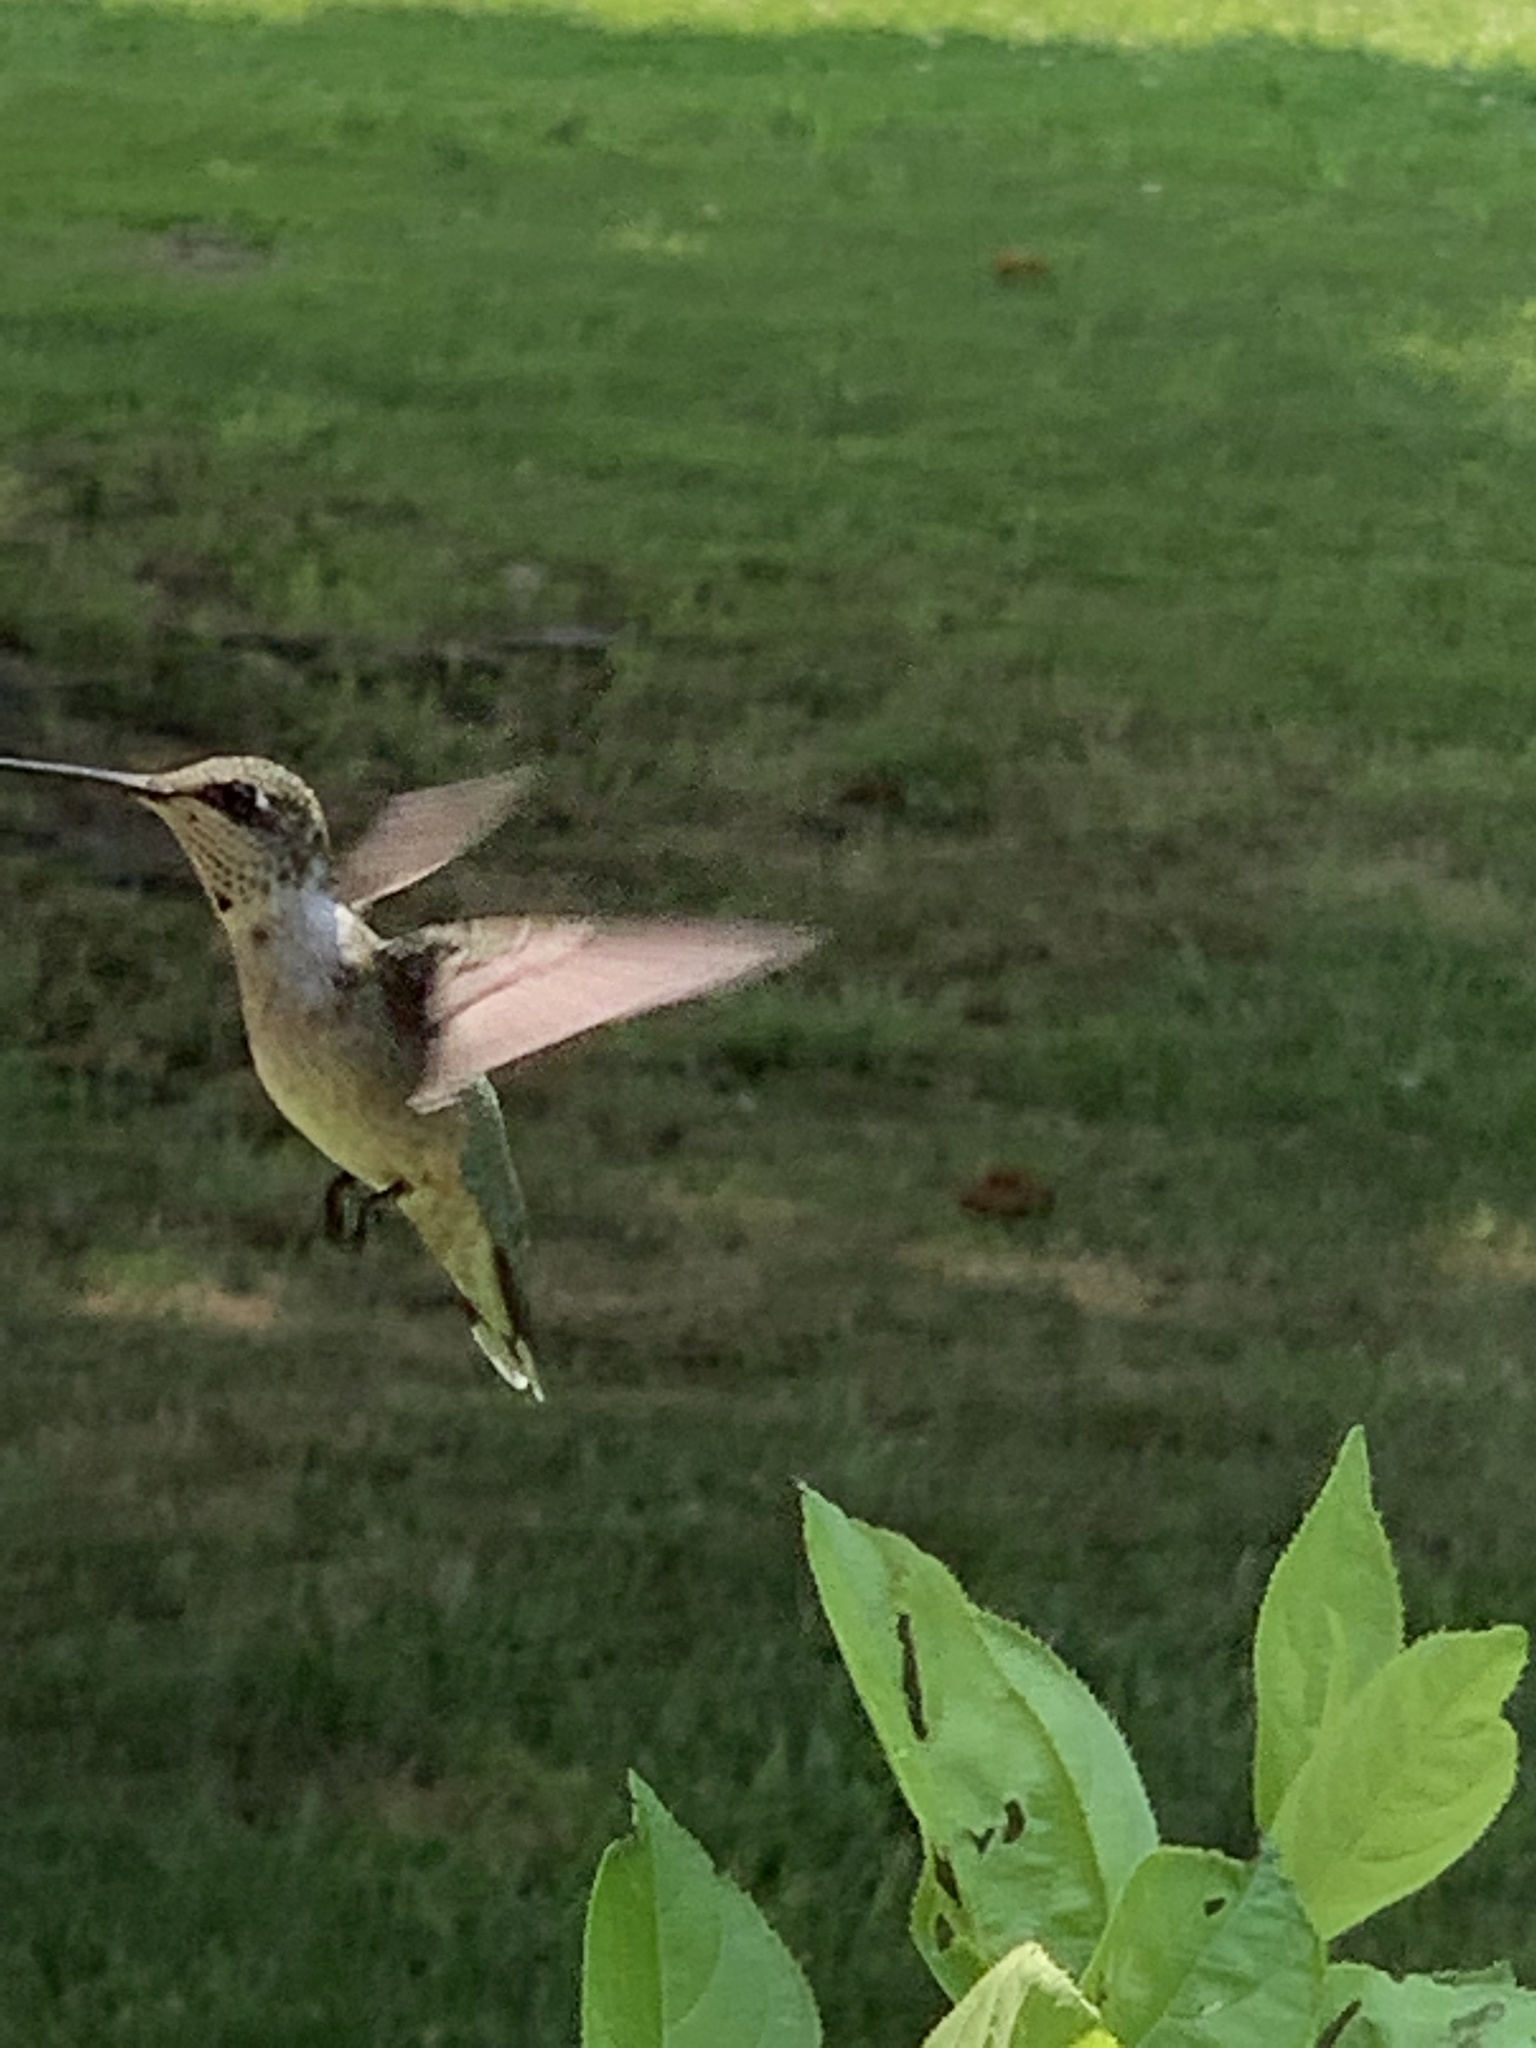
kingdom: Animalia
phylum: Chordata
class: Aves
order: Apodiformes
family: Trochilidae
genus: Archilochus
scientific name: Archilochus colubris
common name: Ruby-throated hummingbird
